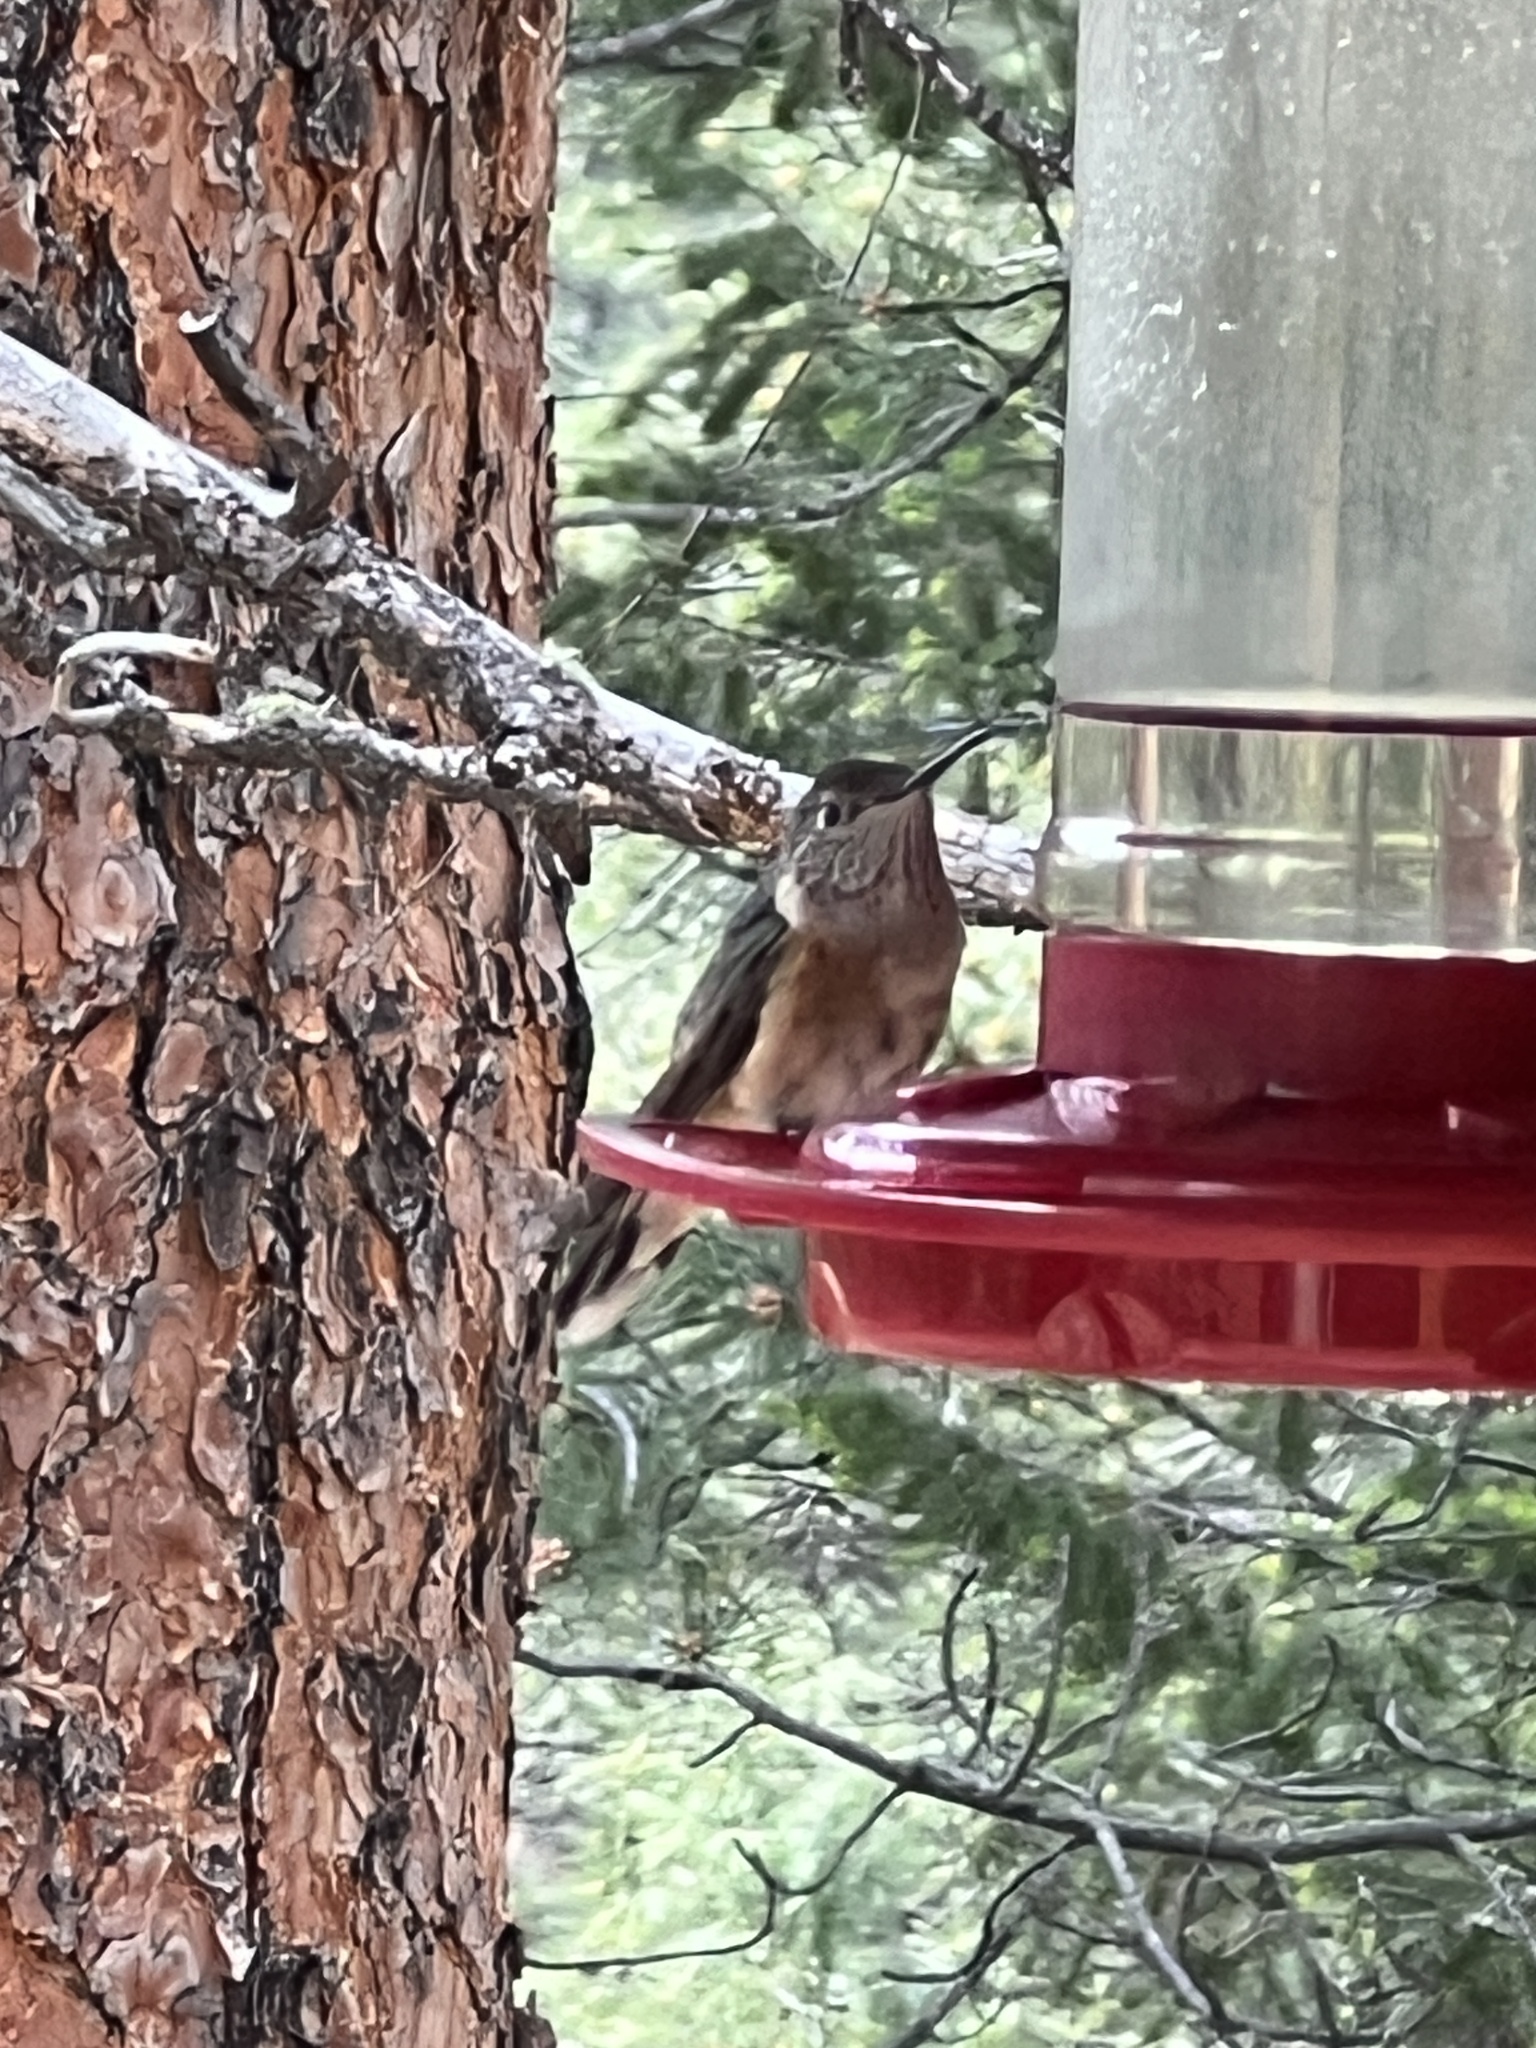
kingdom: Animalia
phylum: Chordata
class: Aves
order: Apodiformes
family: Trochilidae
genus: Selasphorus
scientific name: Selasphorus platycercus
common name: Broad-tailed hummingbird
